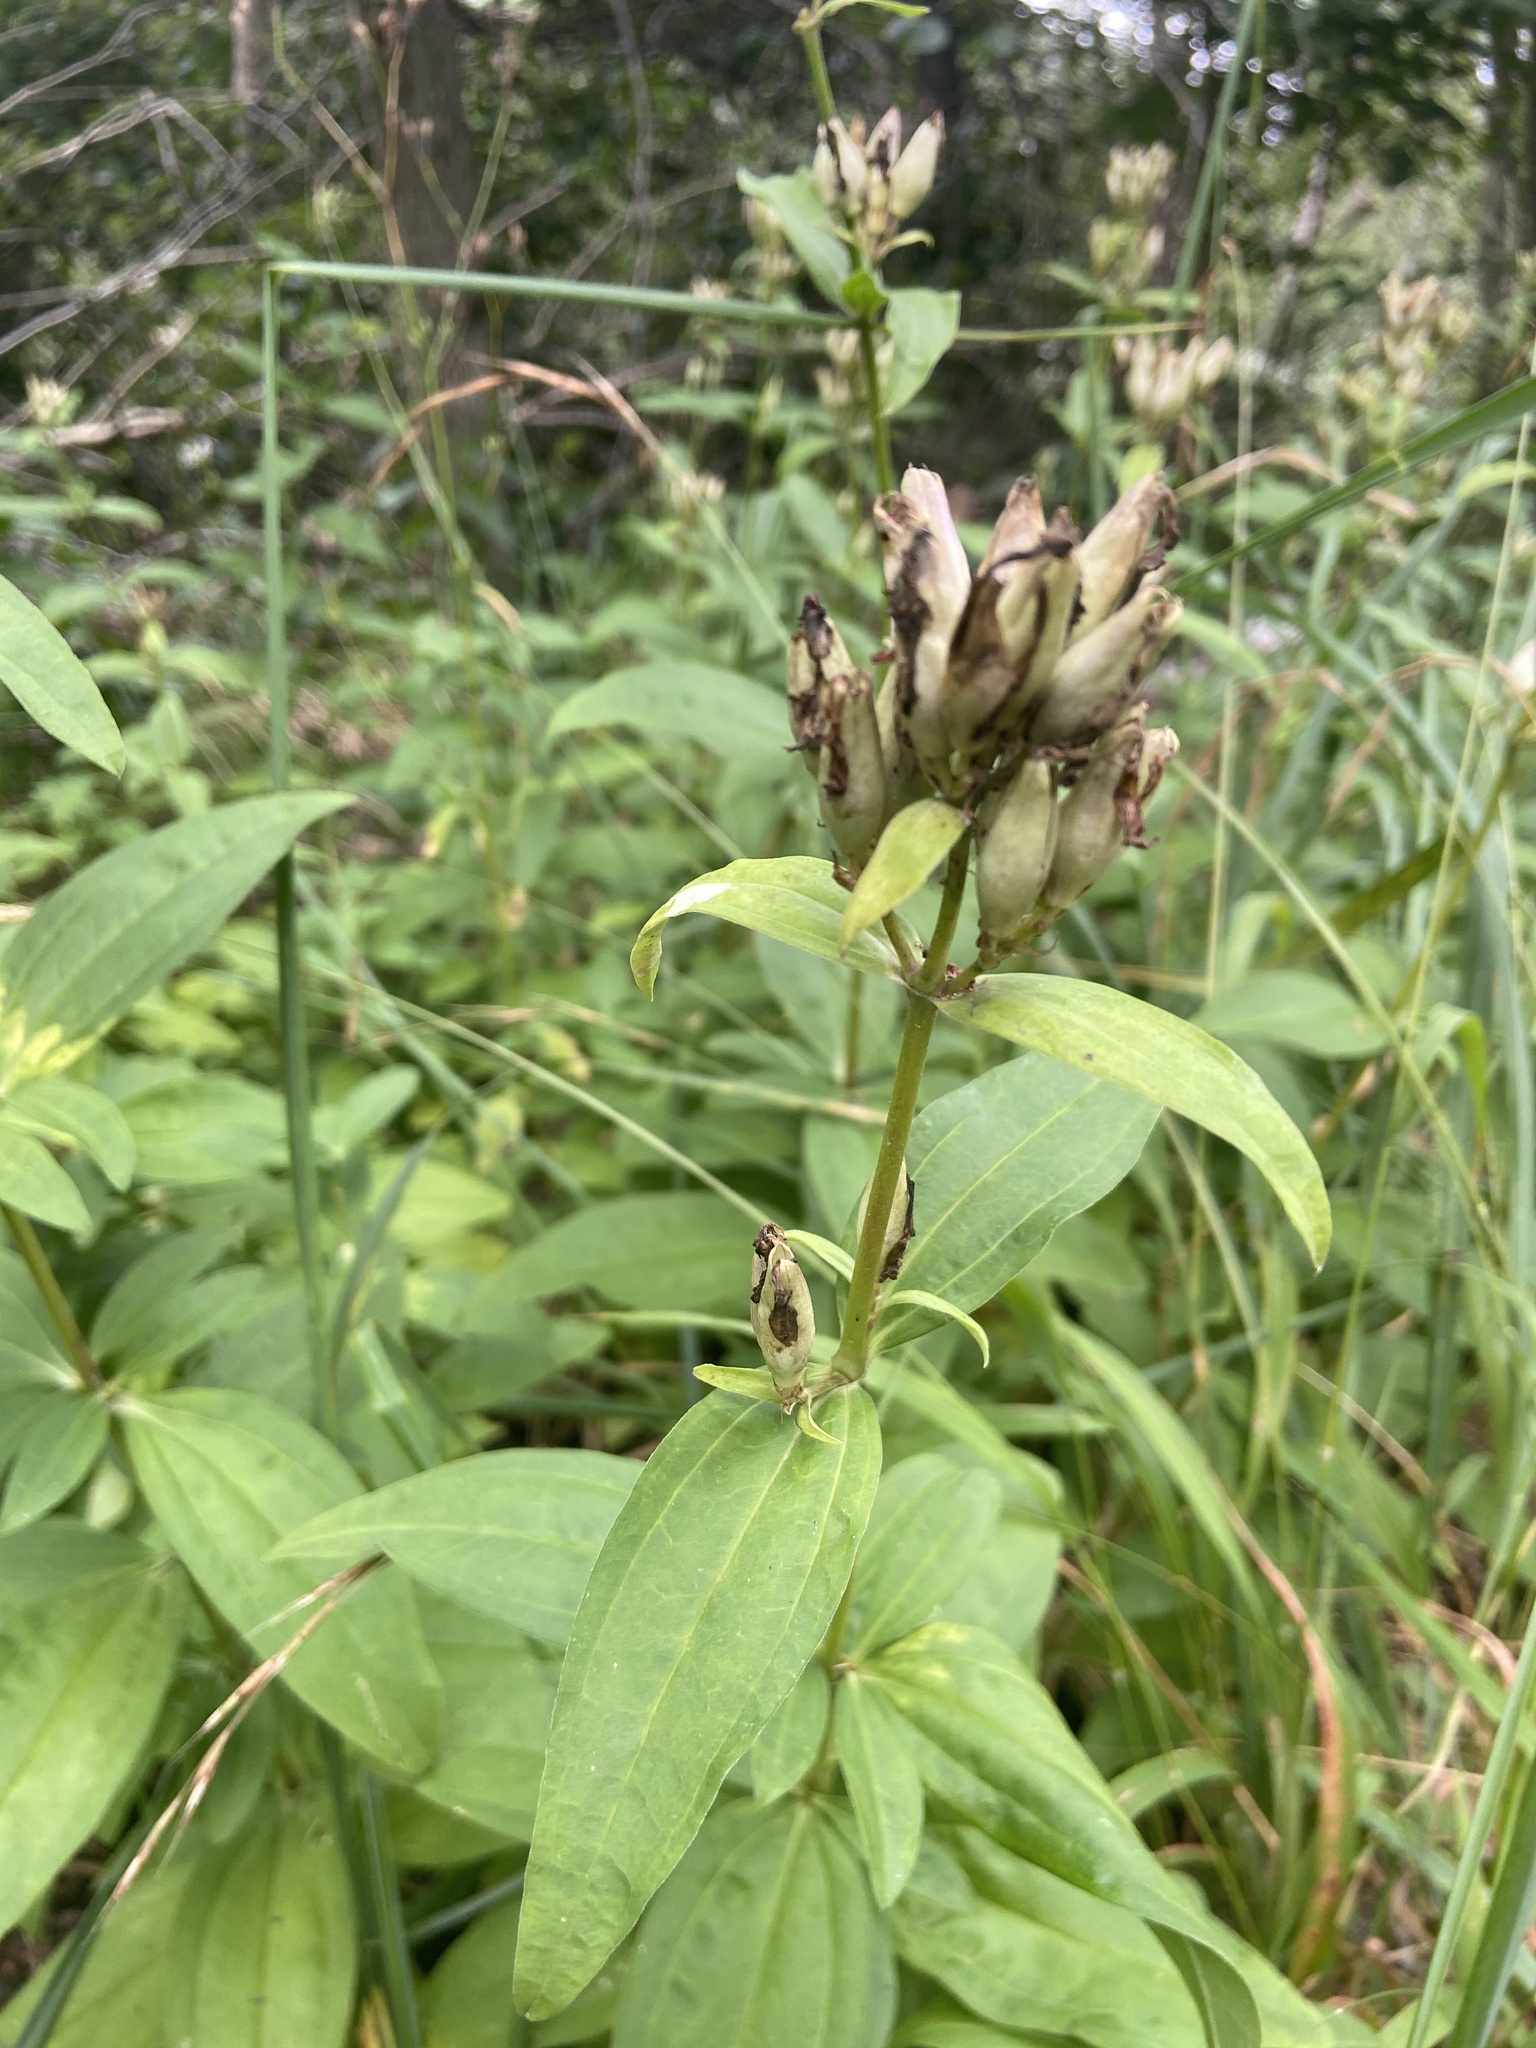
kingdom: Plantae
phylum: Tracheophyta
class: Magnoliopsida
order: Caryophyllales
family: Caryophyllaceae
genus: Saponaria
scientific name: Saponaria officinalis
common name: Soapwort
